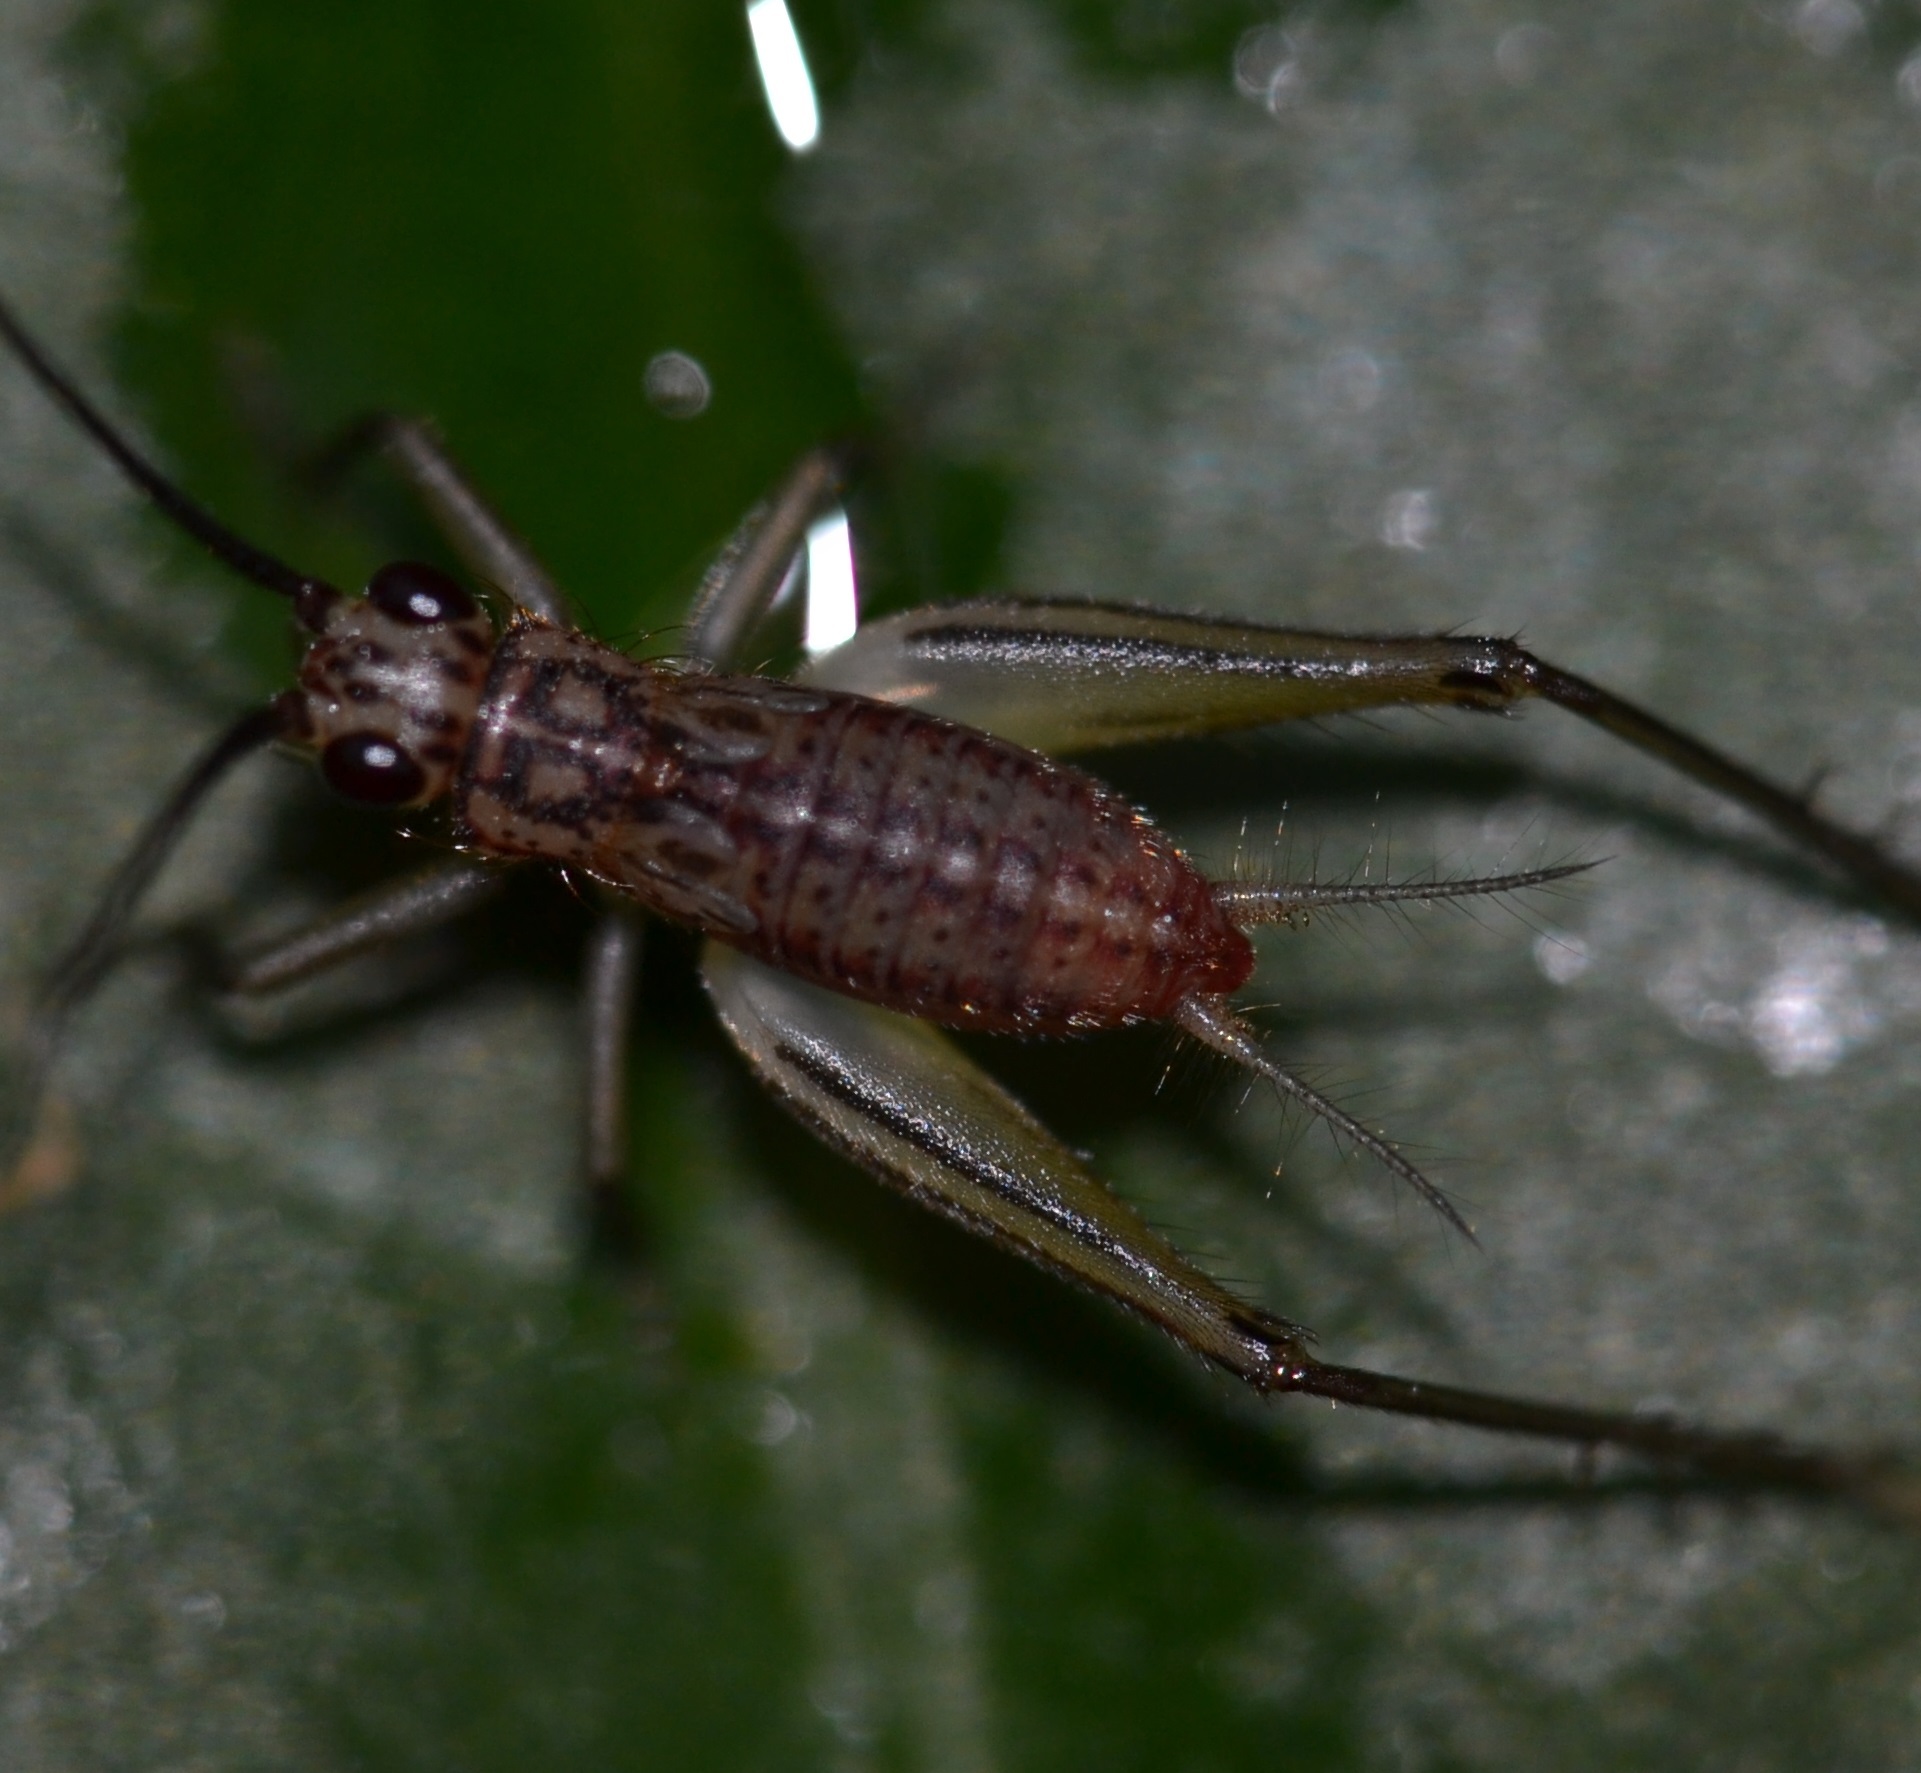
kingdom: Animalia
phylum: Arthropoda
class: Insecta
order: Orthoptera
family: Trigonidiidae
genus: Nanixipha
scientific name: Nanixipha nahoa
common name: Truncated true katydid
